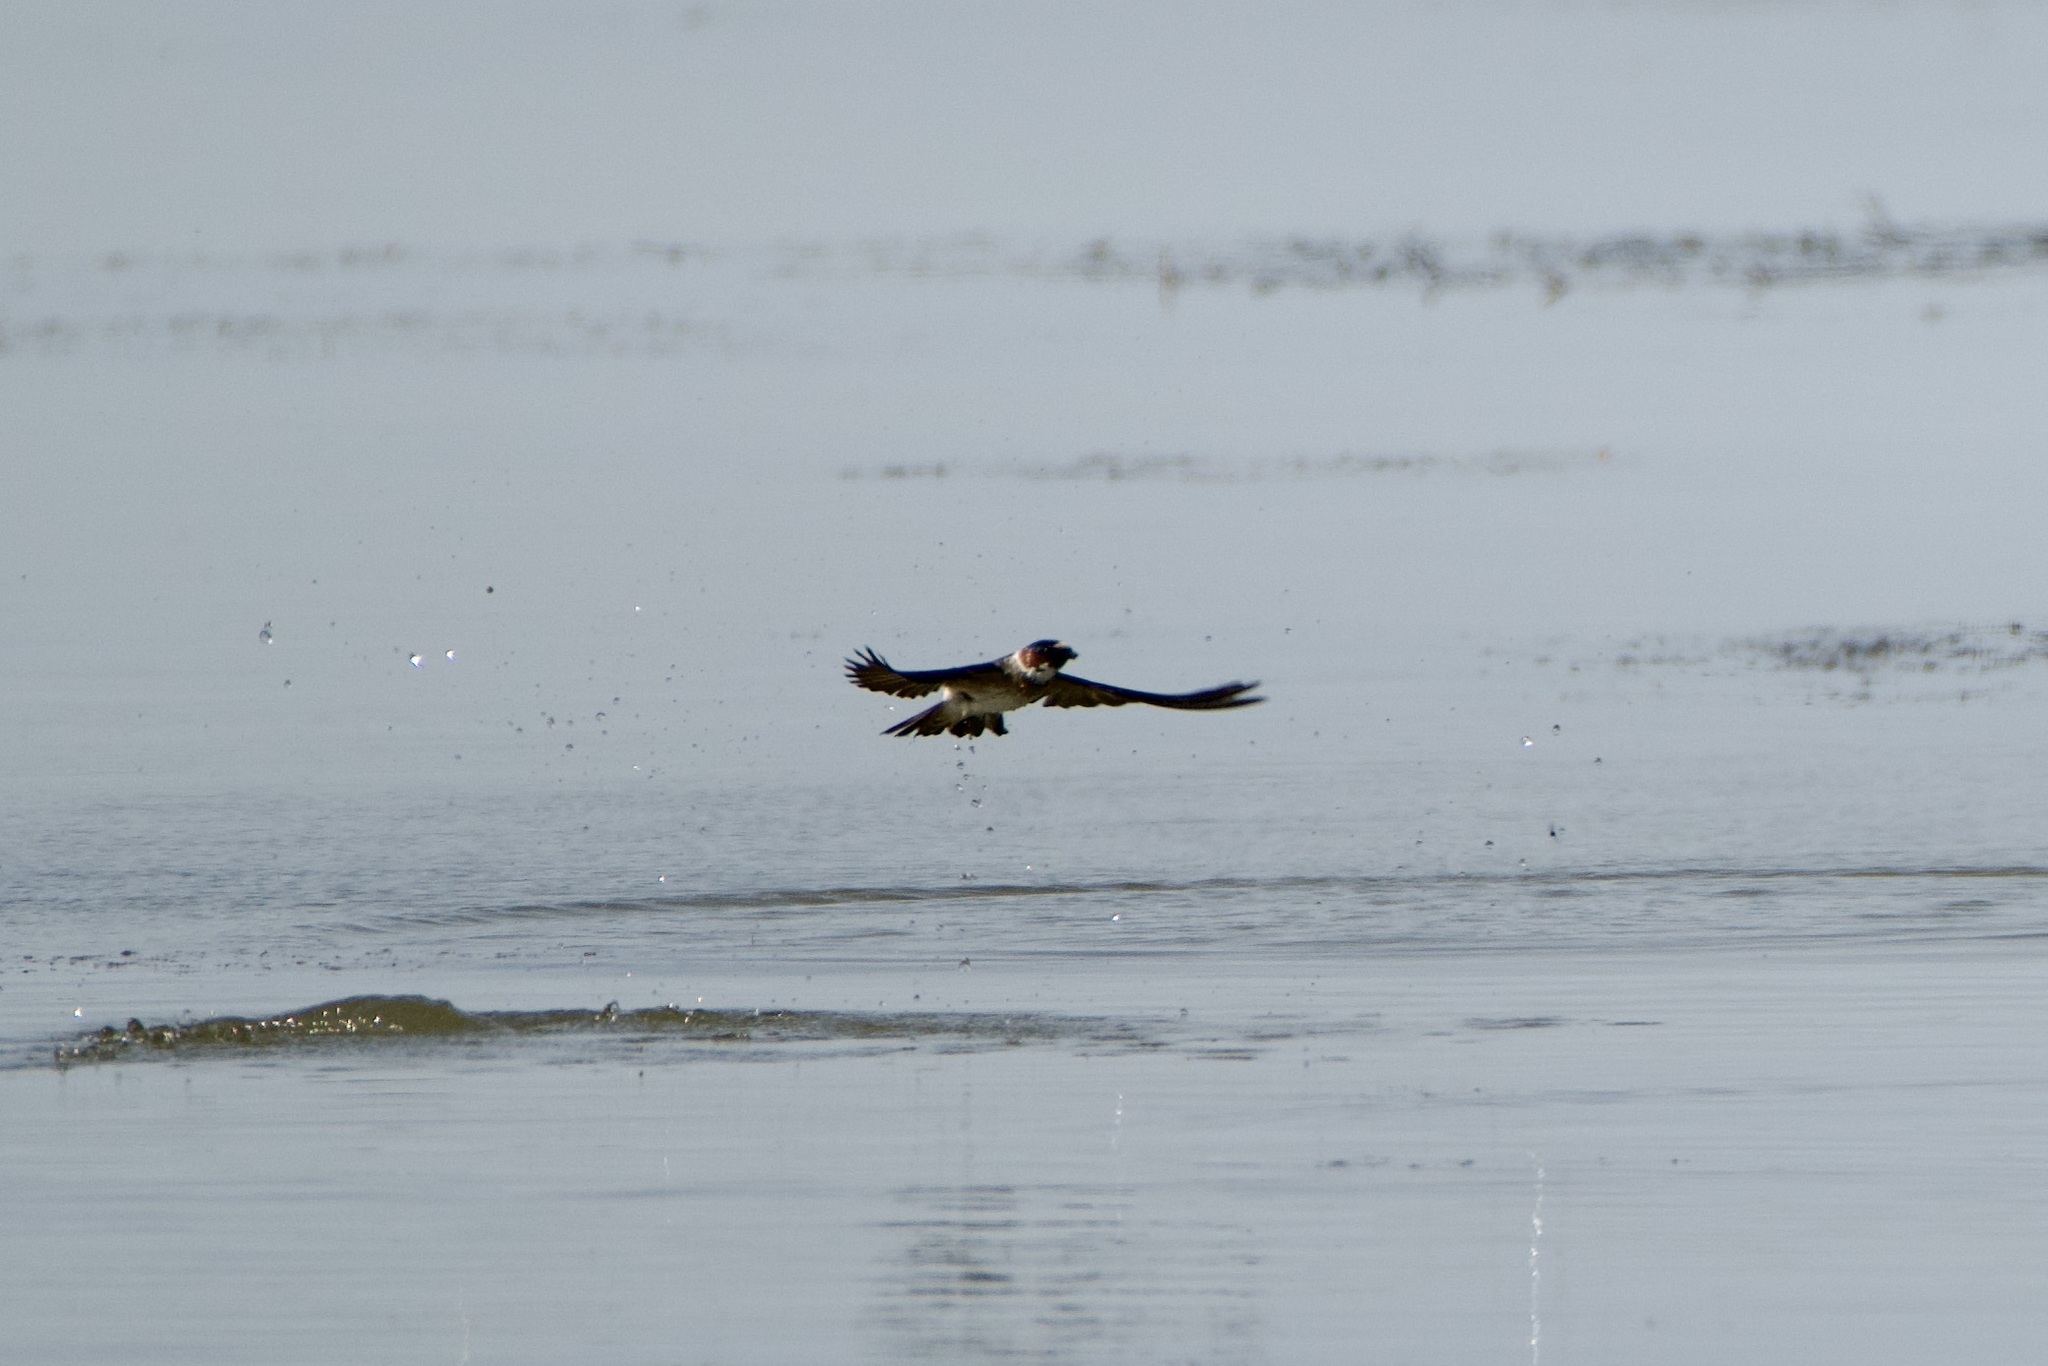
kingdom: Animalia
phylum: Chordata
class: Aves
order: Passeriformes
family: Hirundinidae
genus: Petrochelidon
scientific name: Petrochelidon pyrrhonota
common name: American cliff swallow
